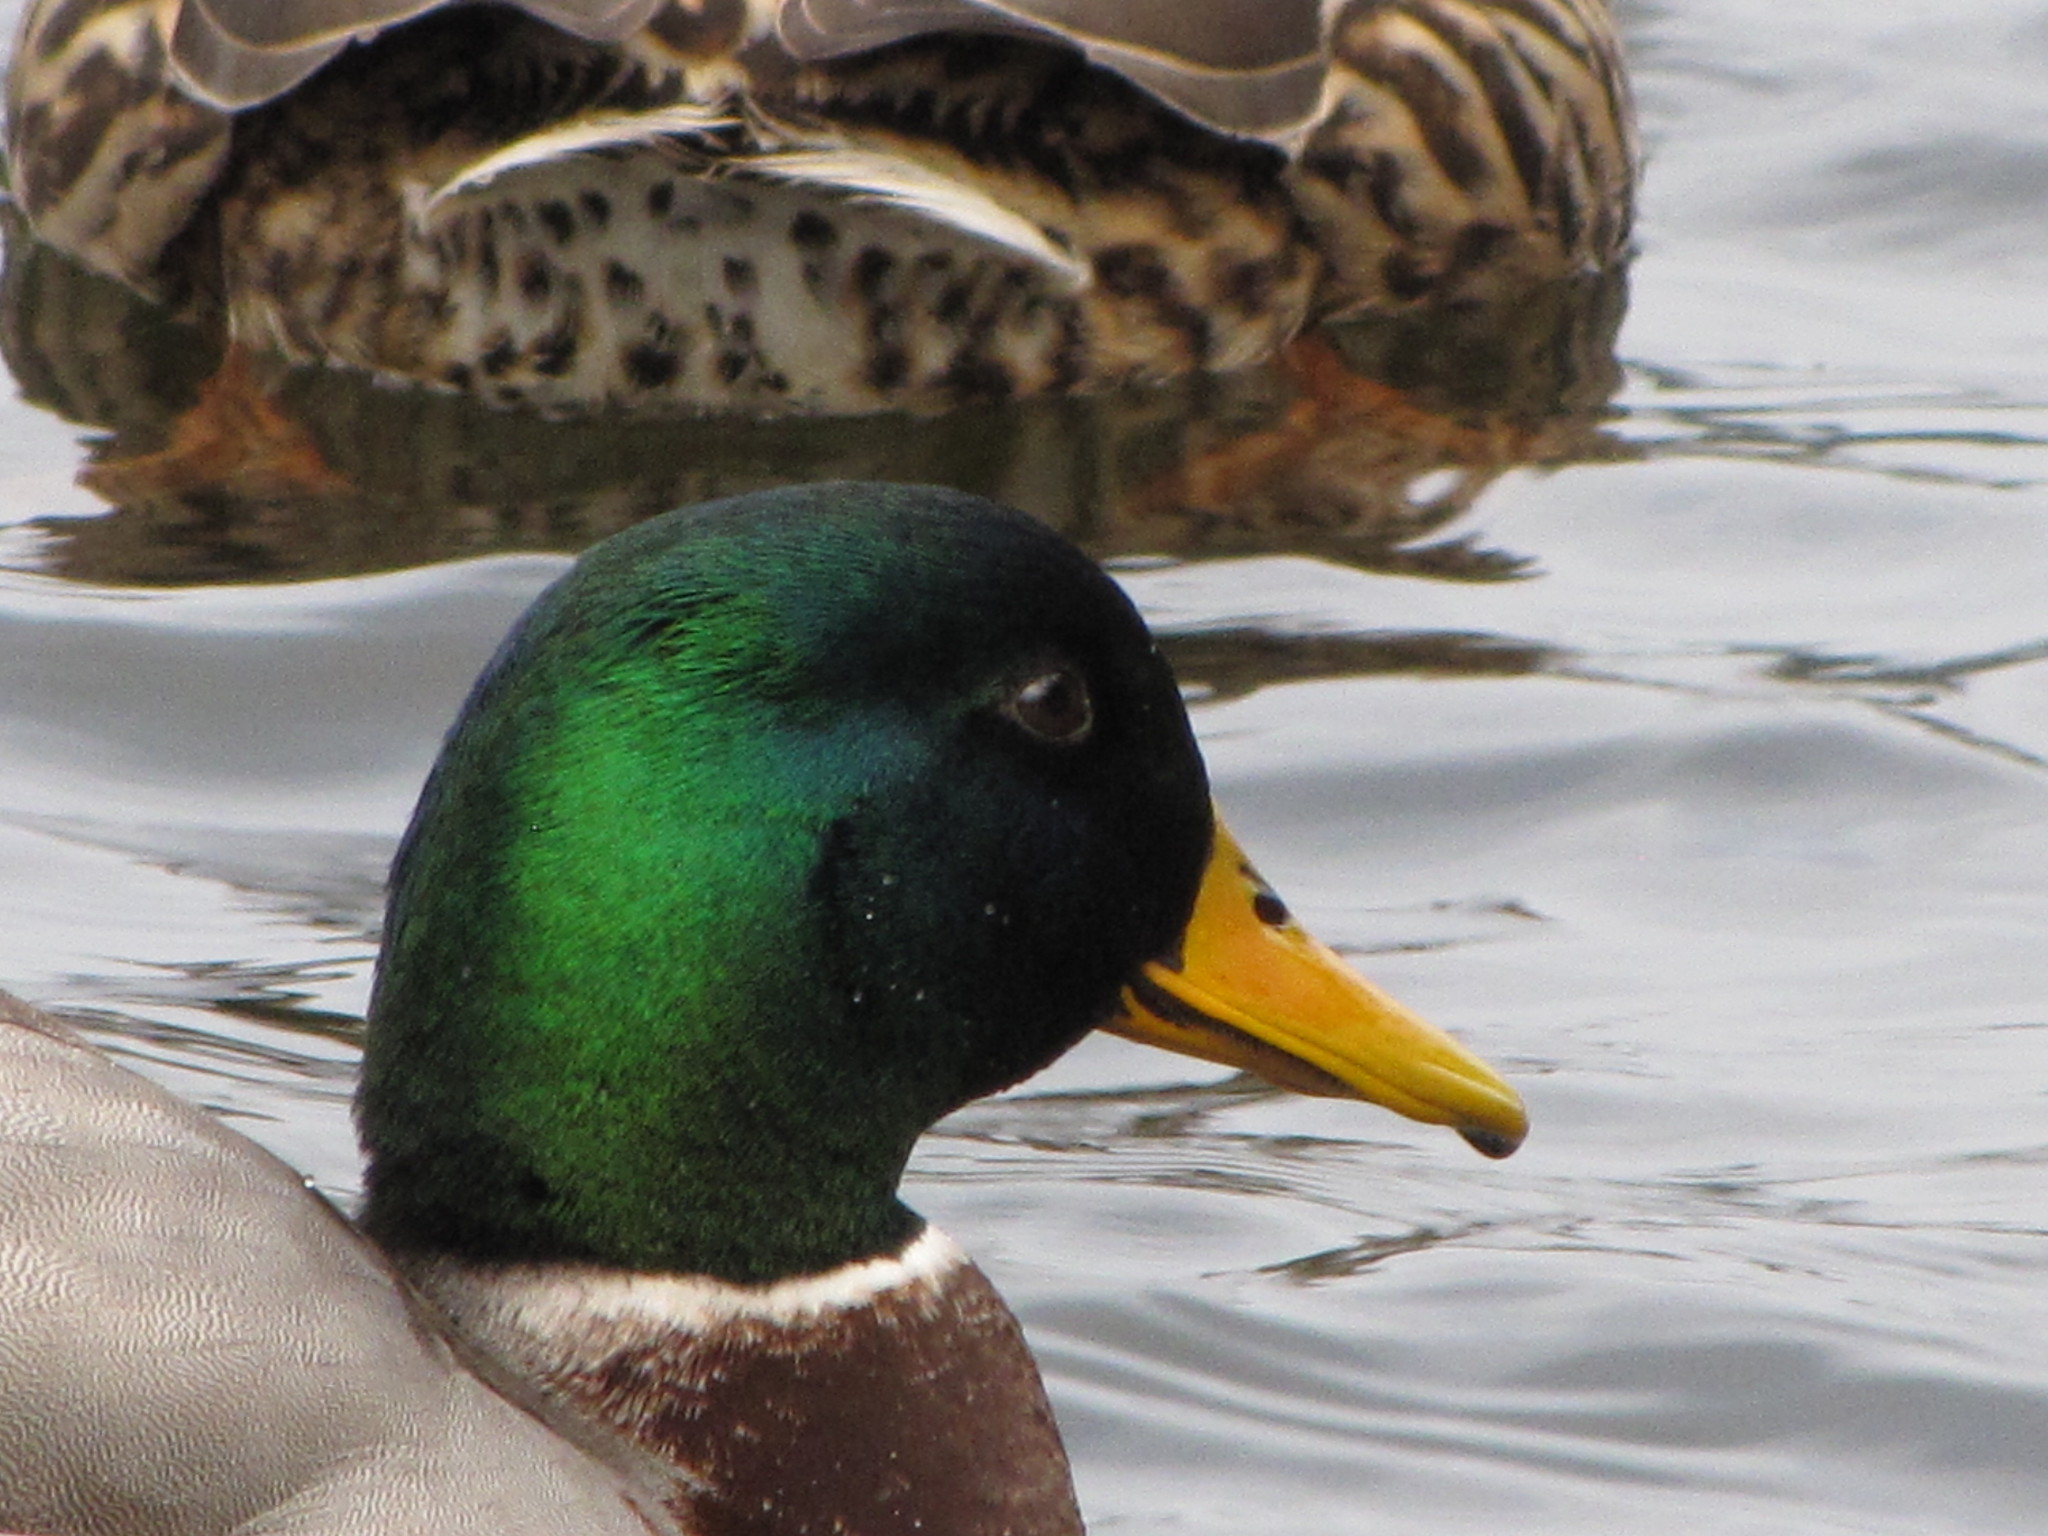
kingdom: Animalia
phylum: Chordata
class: Aves
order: Anseriformes
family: Anatidae
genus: Anas
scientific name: Anas platyrhynchos
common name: Mallard
